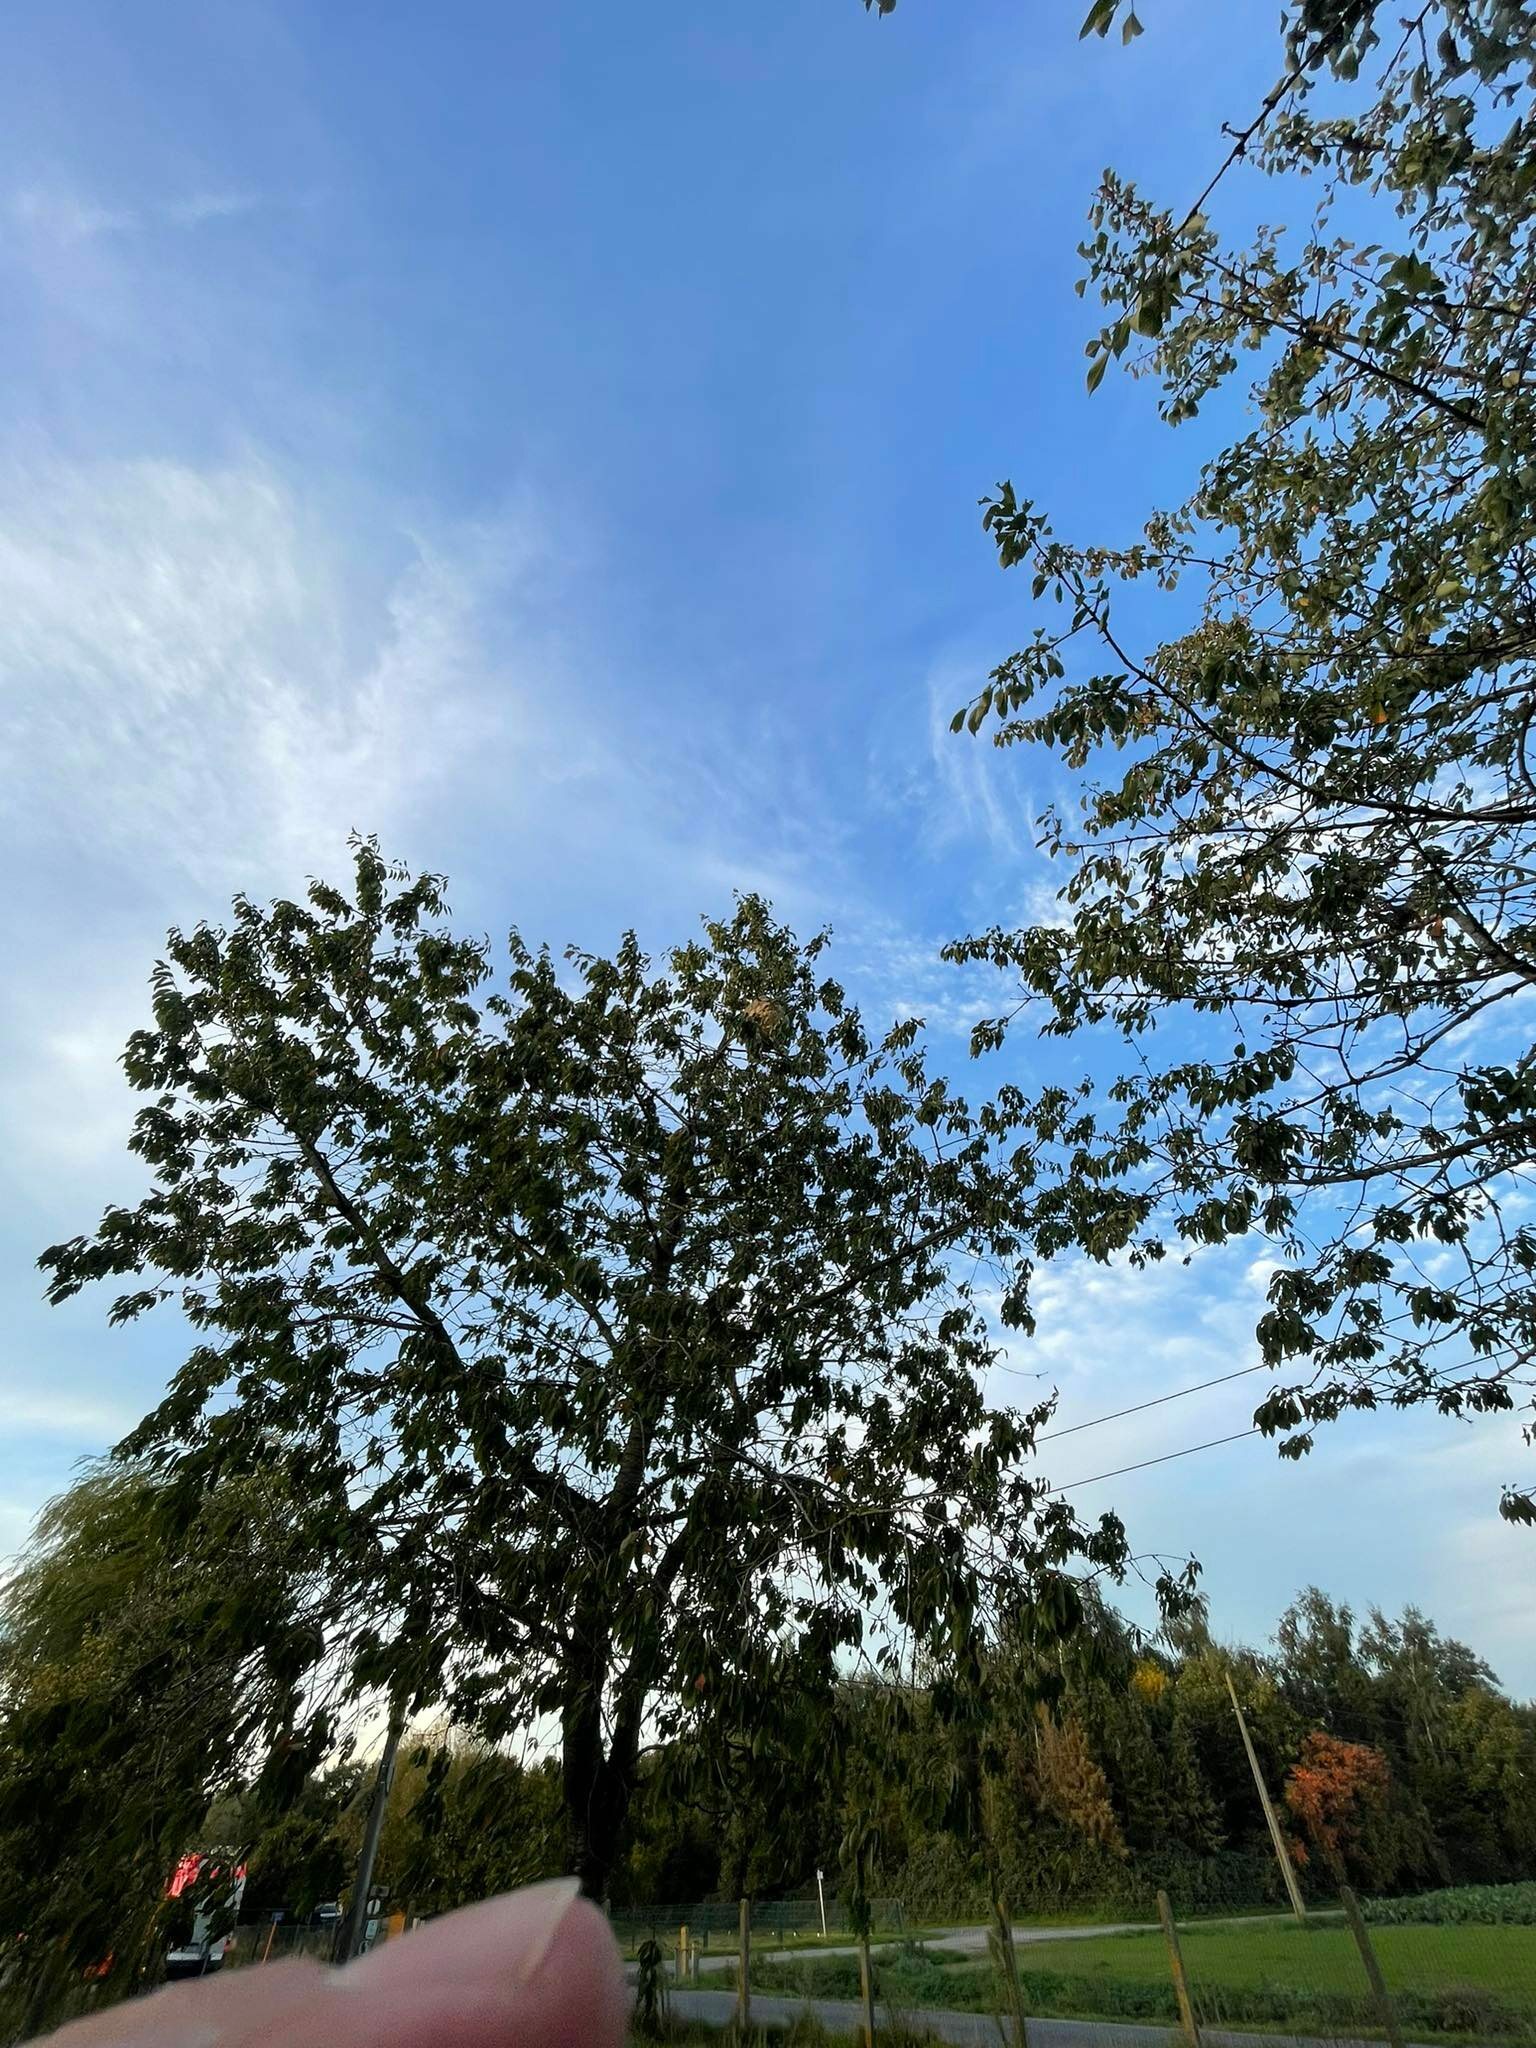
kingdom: Animalia
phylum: Arthropoda
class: Insecta
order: Hymenoptera
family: Vespidae
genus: Vespa
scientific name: Vespa velutina
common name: Asian hornet
